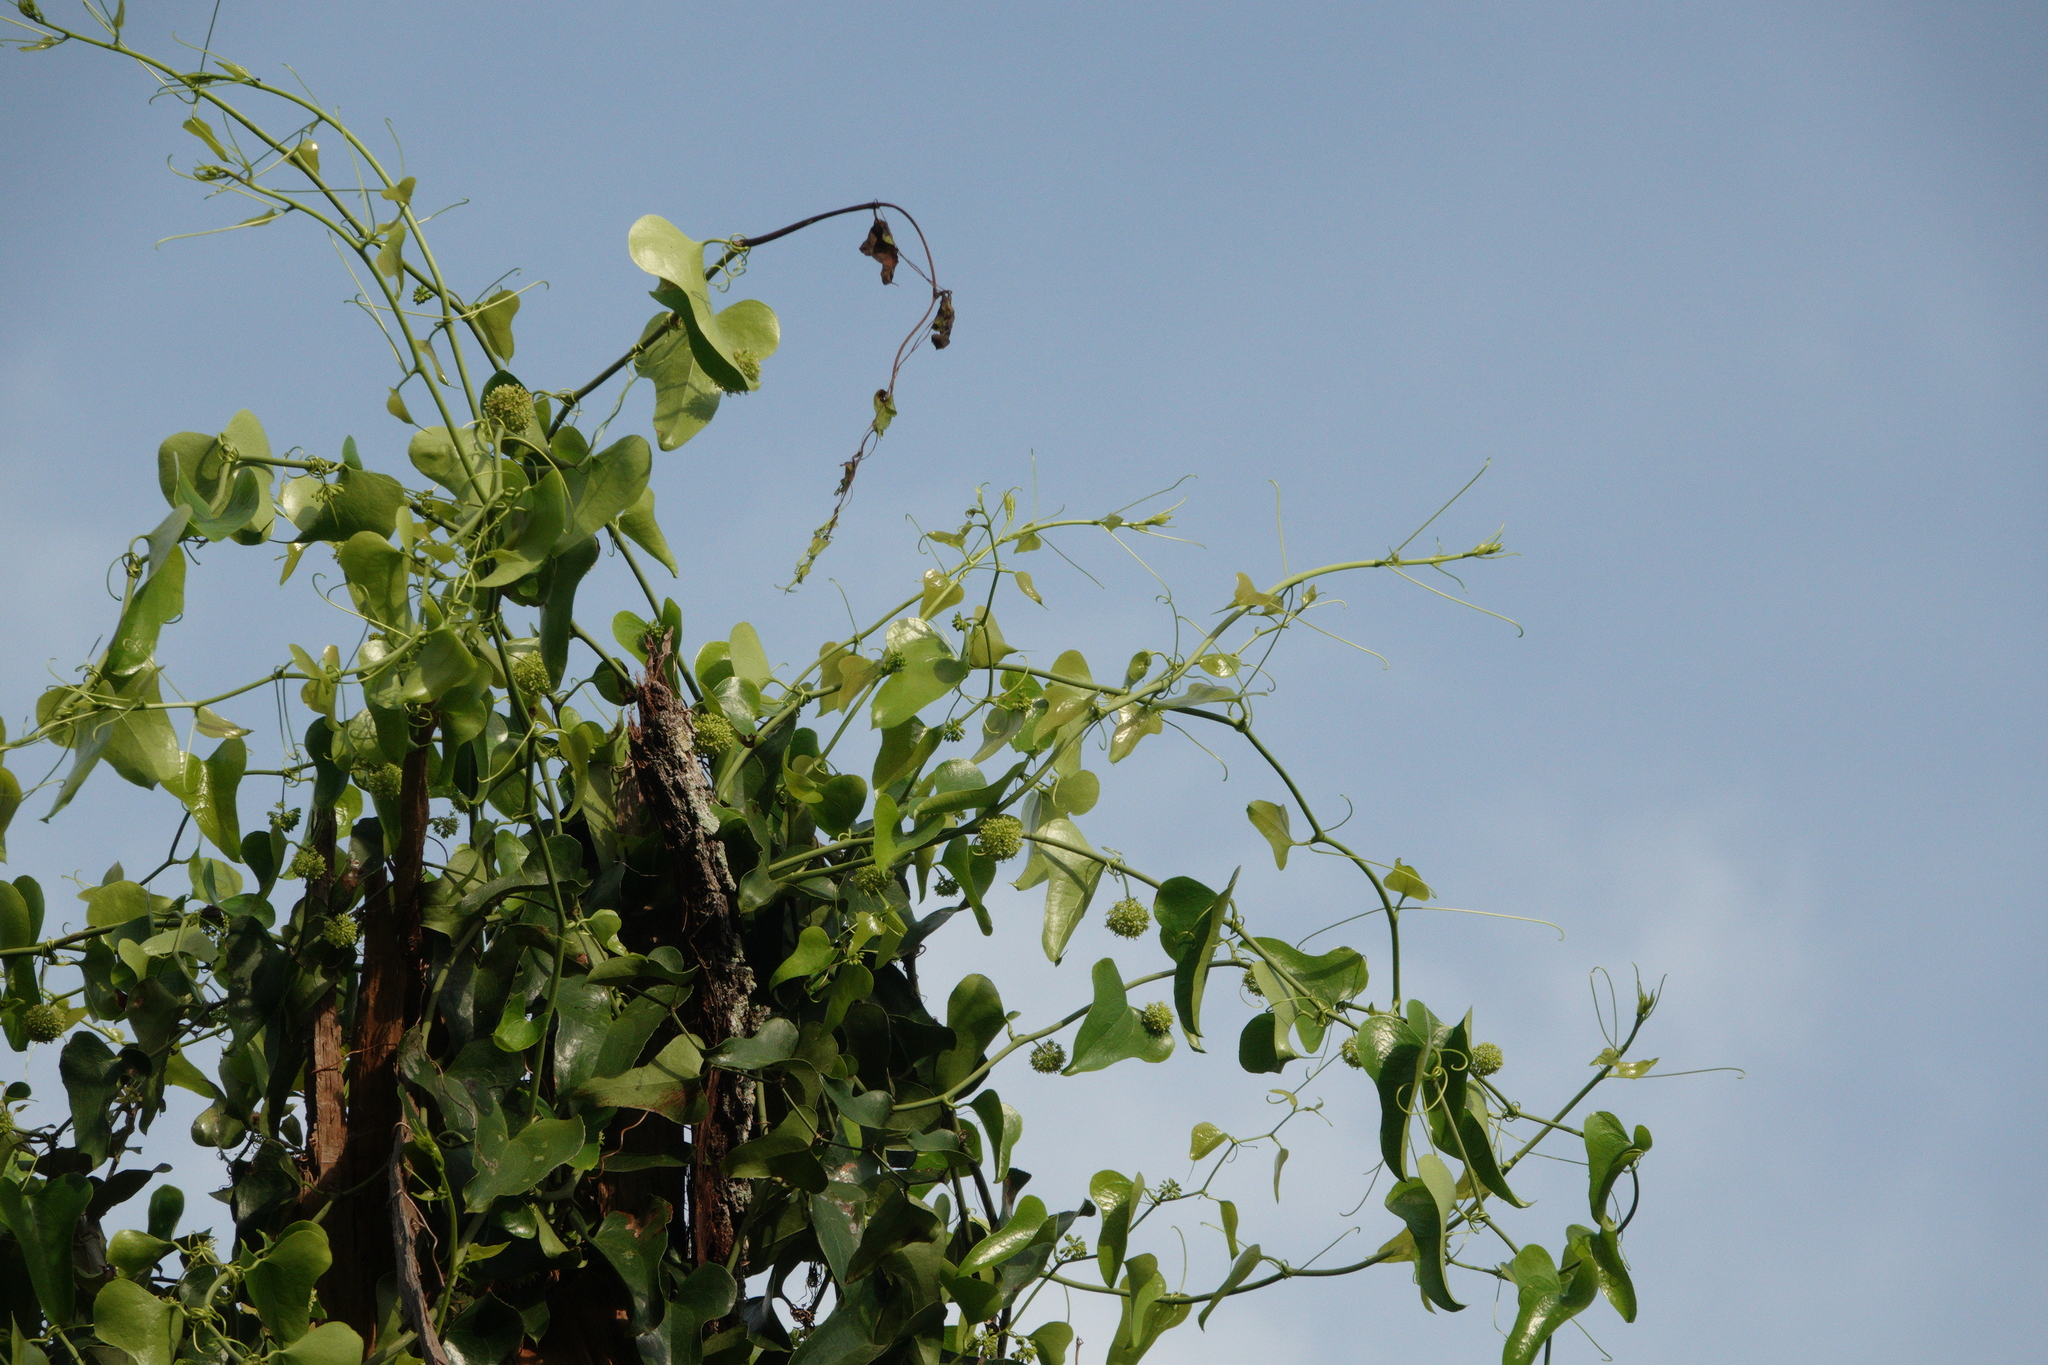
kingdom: Plantae
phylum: Tracheophyta
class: Liliopsida
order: Liliales
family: Smilacaceae
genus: Smilax
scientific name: Smilax bona-nox
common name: Catbrier
